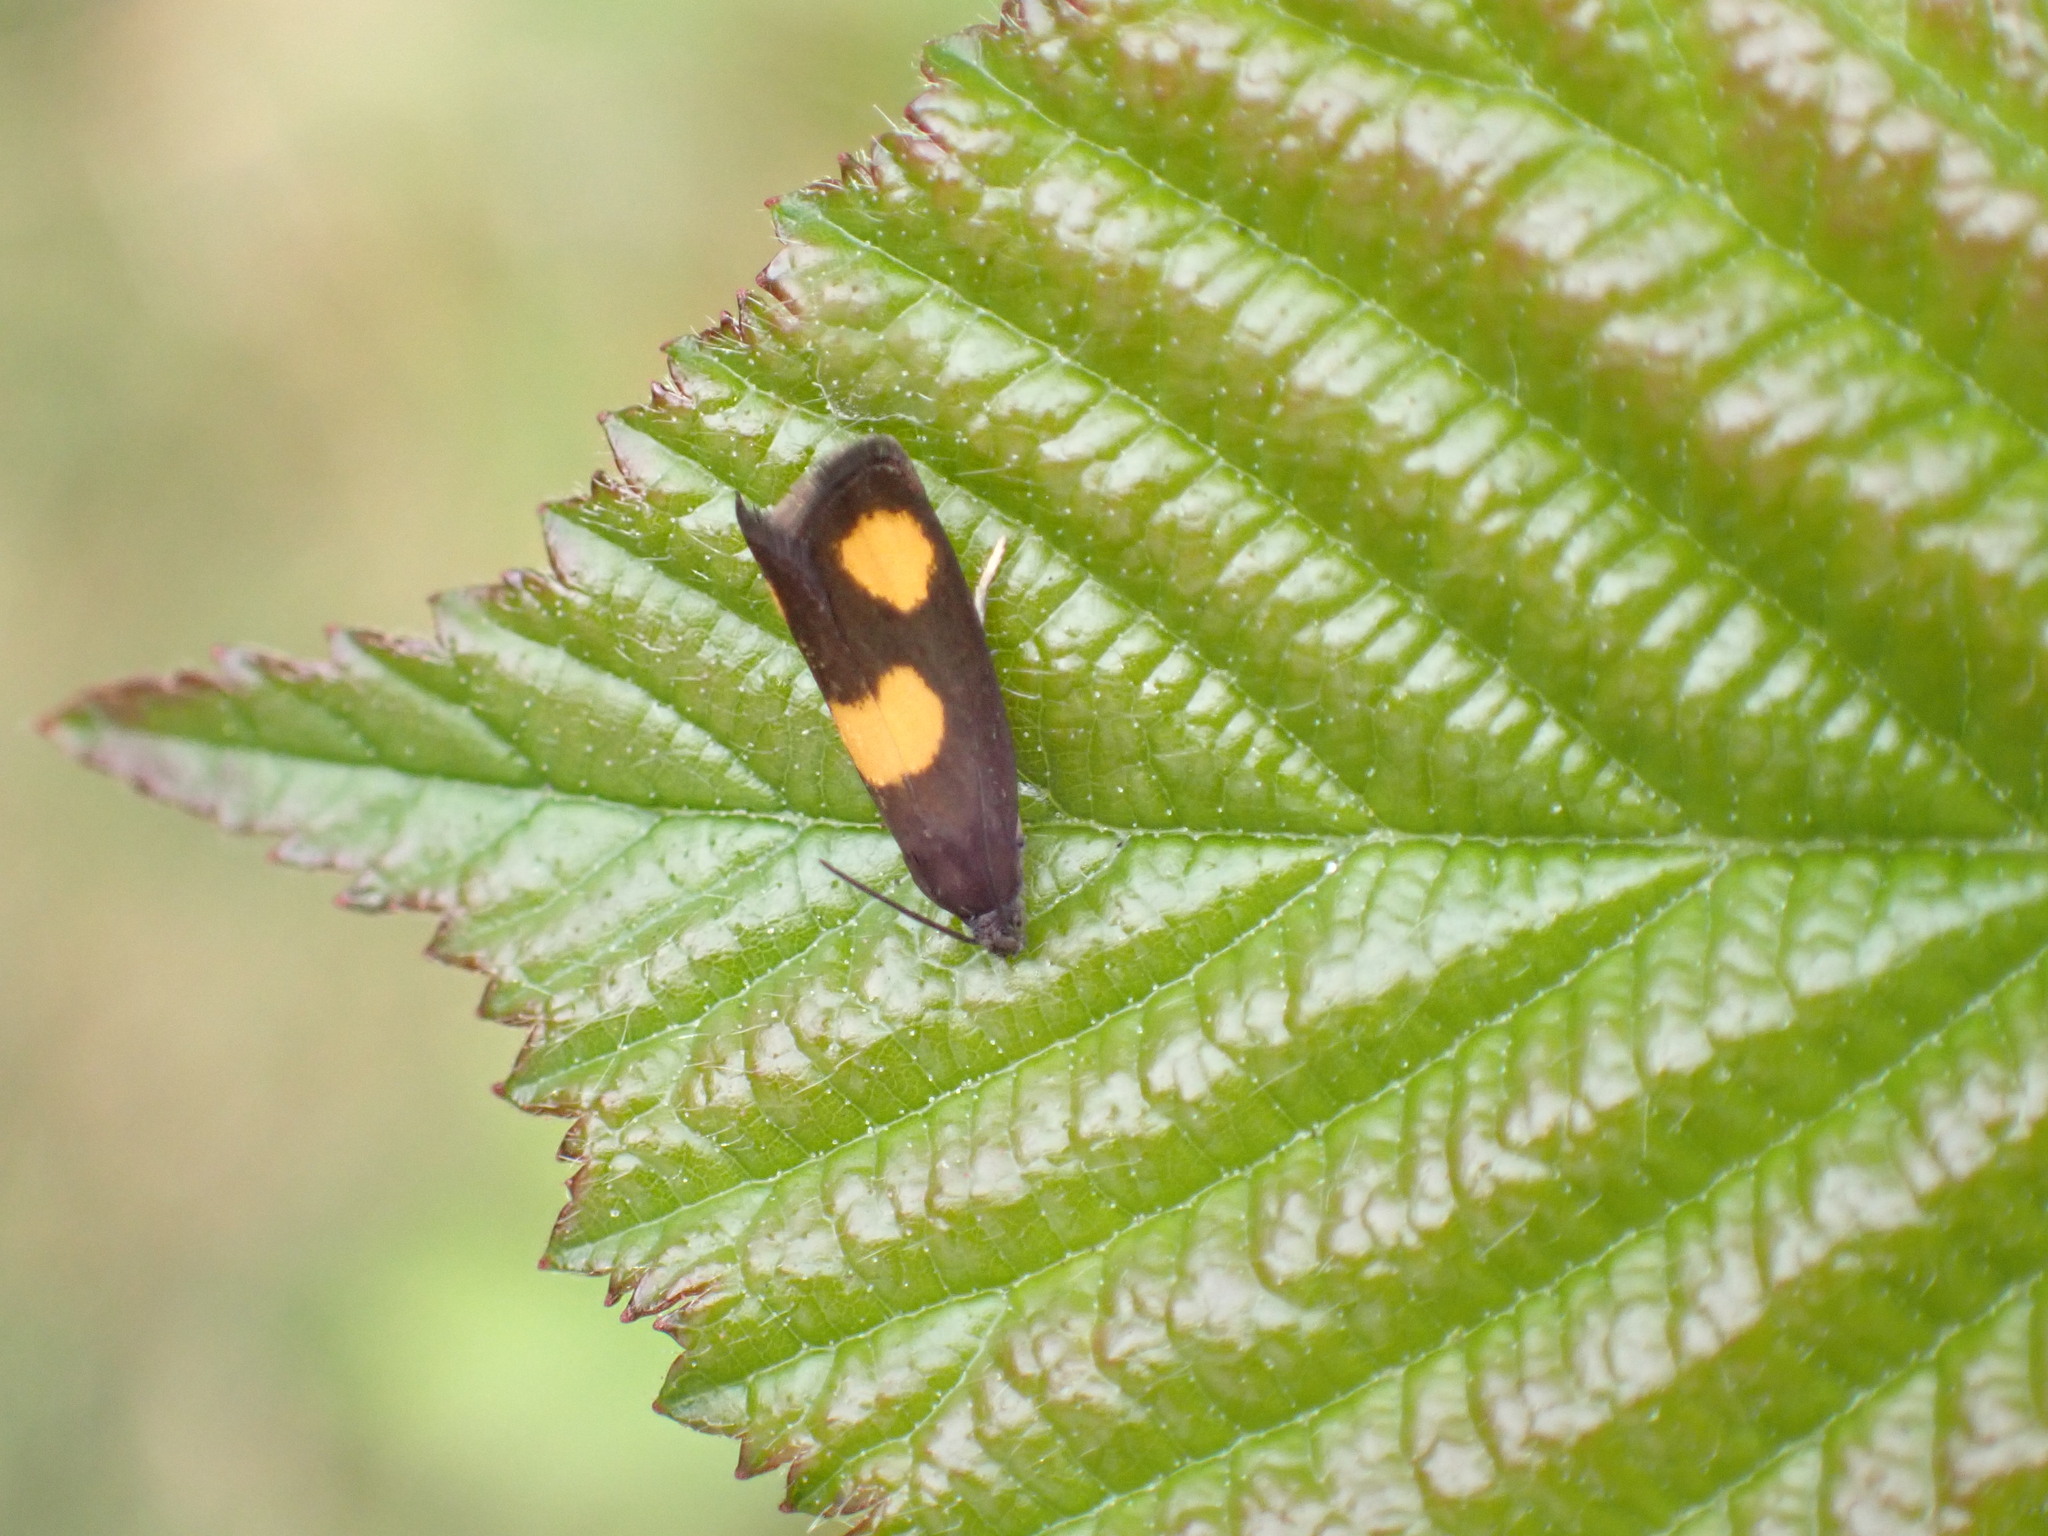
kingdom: Animalia
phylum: Arthropoda
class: Insecta
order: Lepidoptera
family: Tortricidae
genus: Pammene
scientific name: Pammene aurana
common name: Orange-spot piercer
